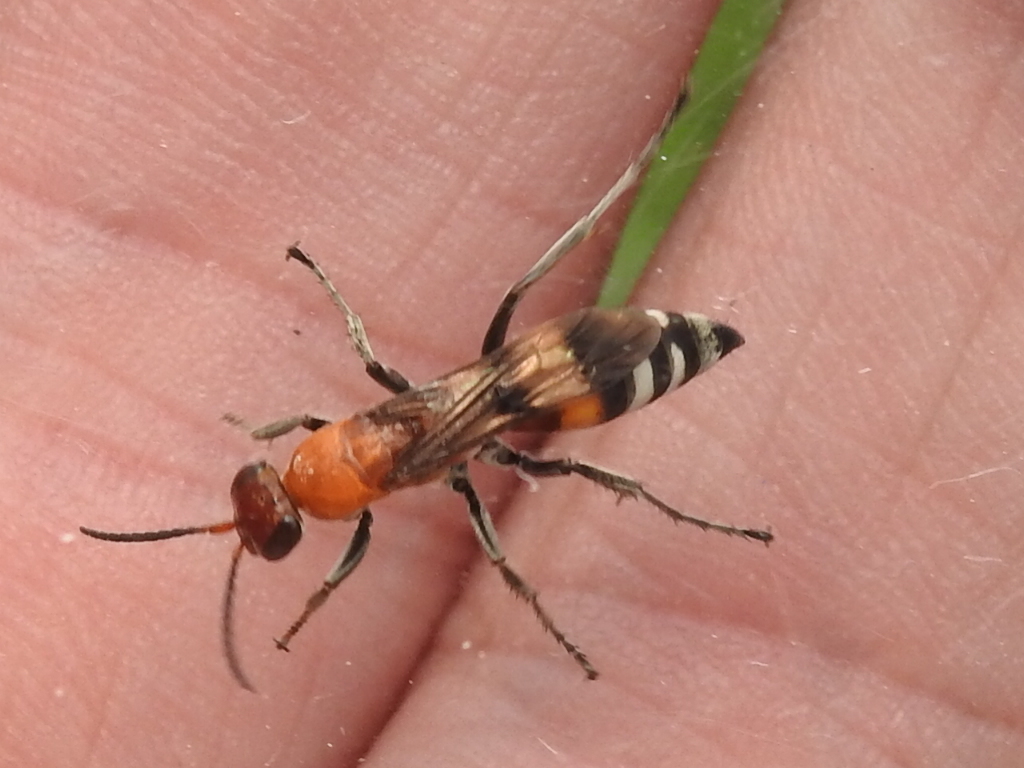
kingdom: Animalia
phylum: Arthropoda
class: Insecta
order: Hymenoptera
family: Pompilidae
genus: Psorthaspis
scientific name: Psorthaspis legata
